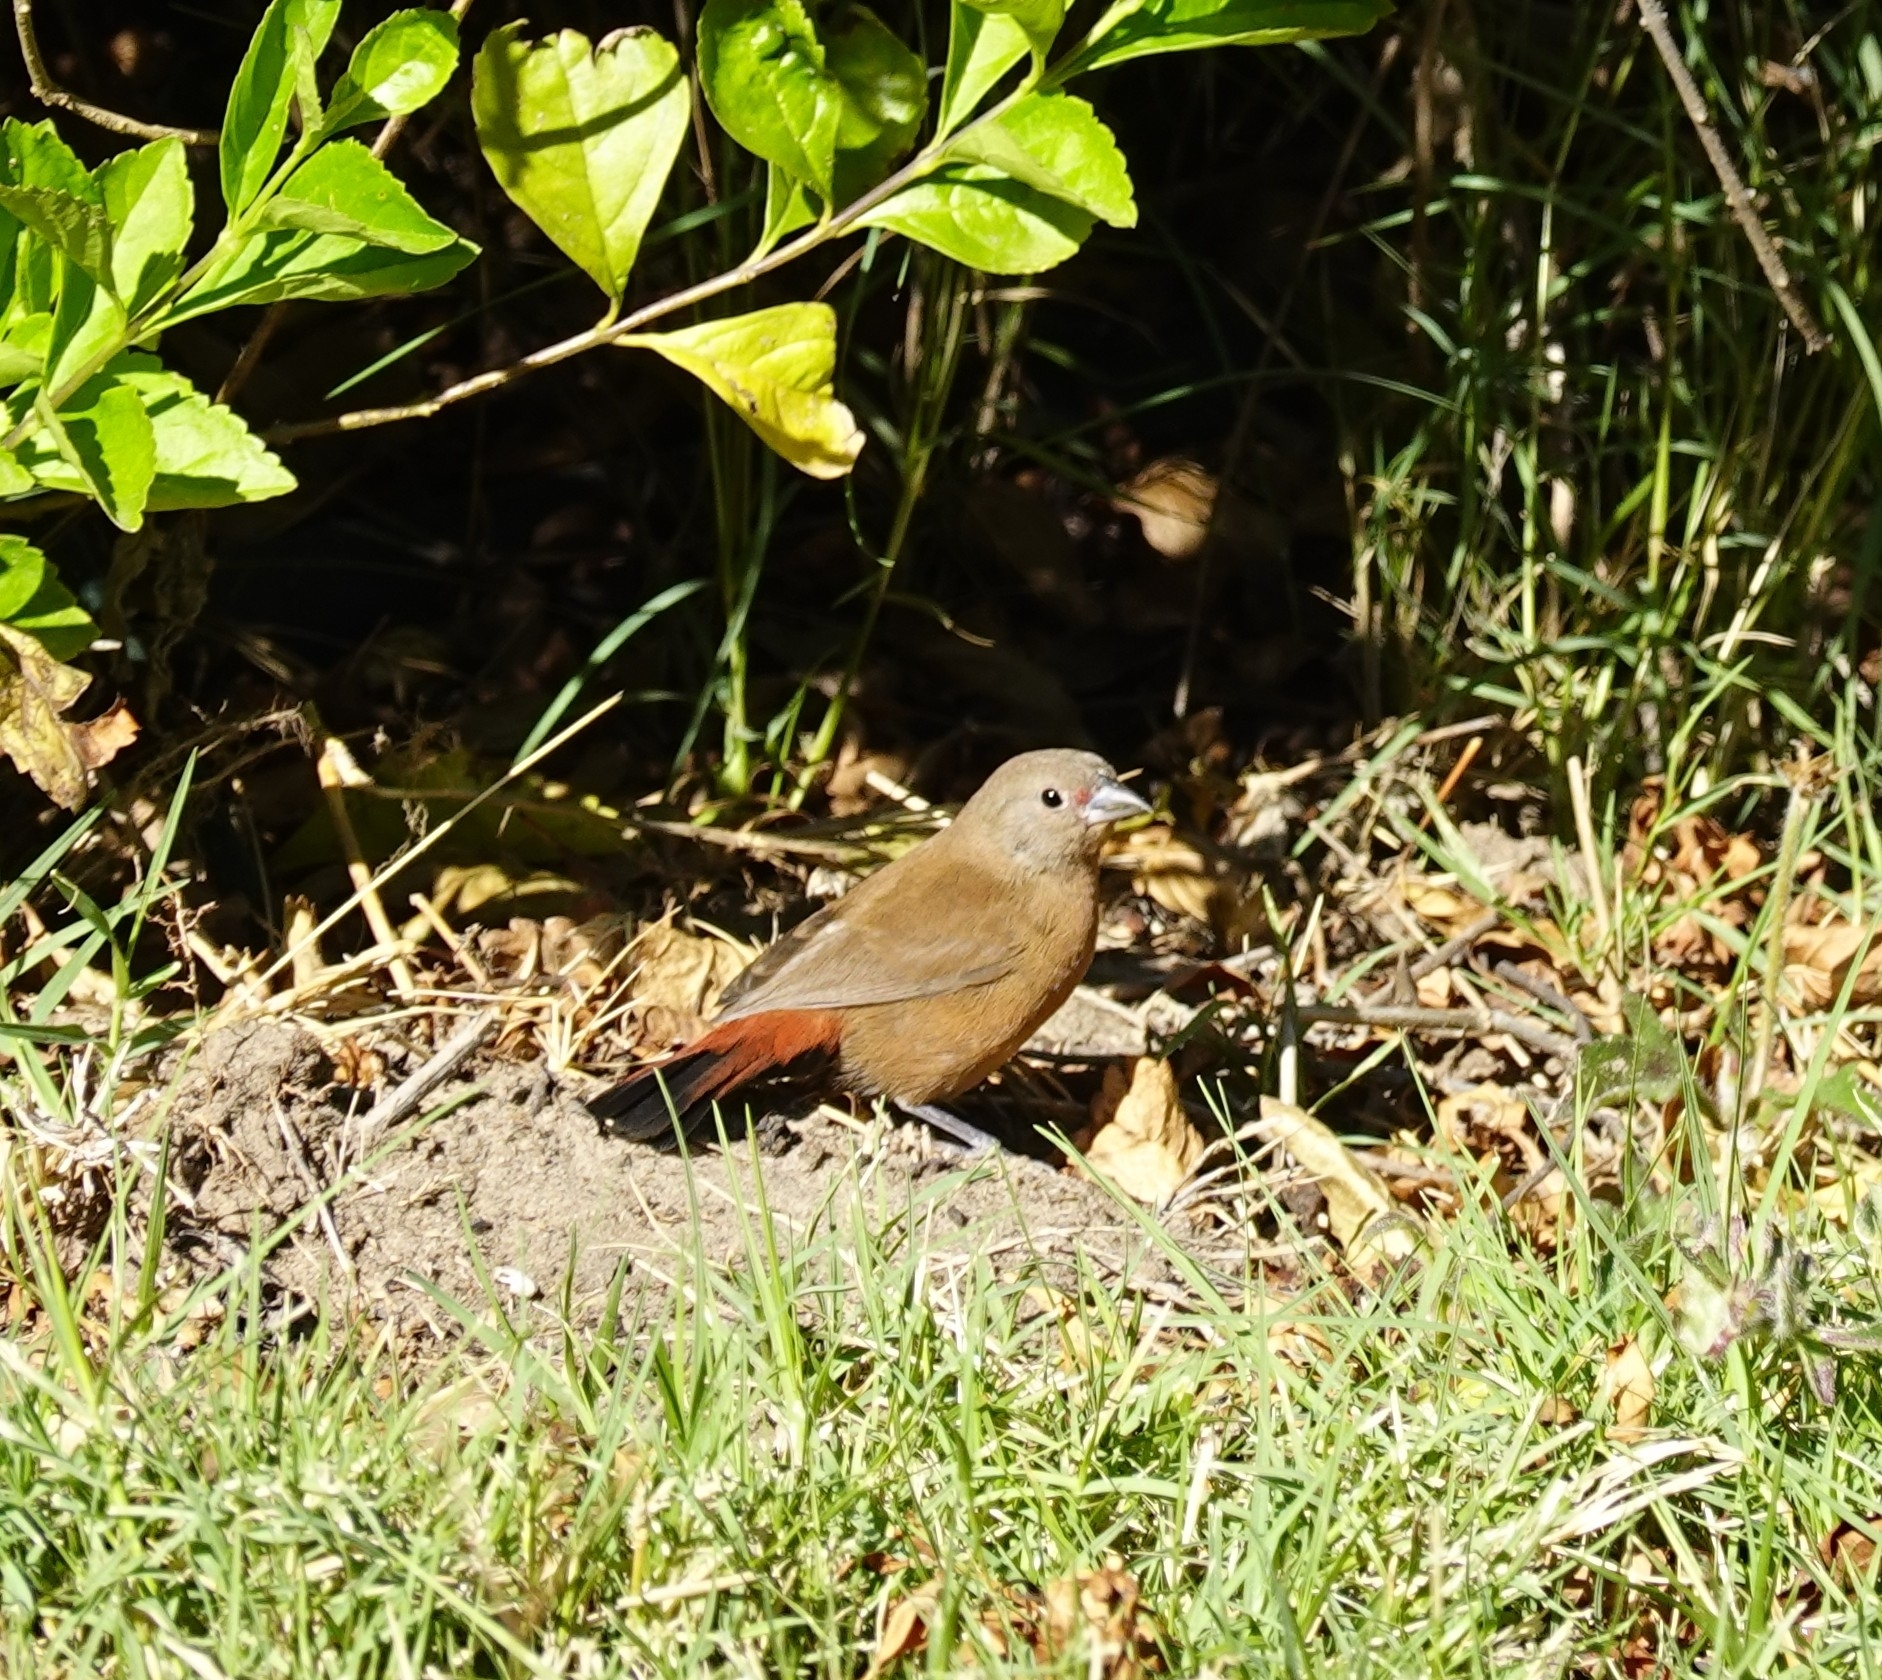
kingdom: Animalia
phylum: Chordata
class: Aves
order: Passeriformes
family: Estrildidae
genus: Lagonosticta
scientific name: Lagonosticta rhodopareia
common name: Jameson's firefinch
